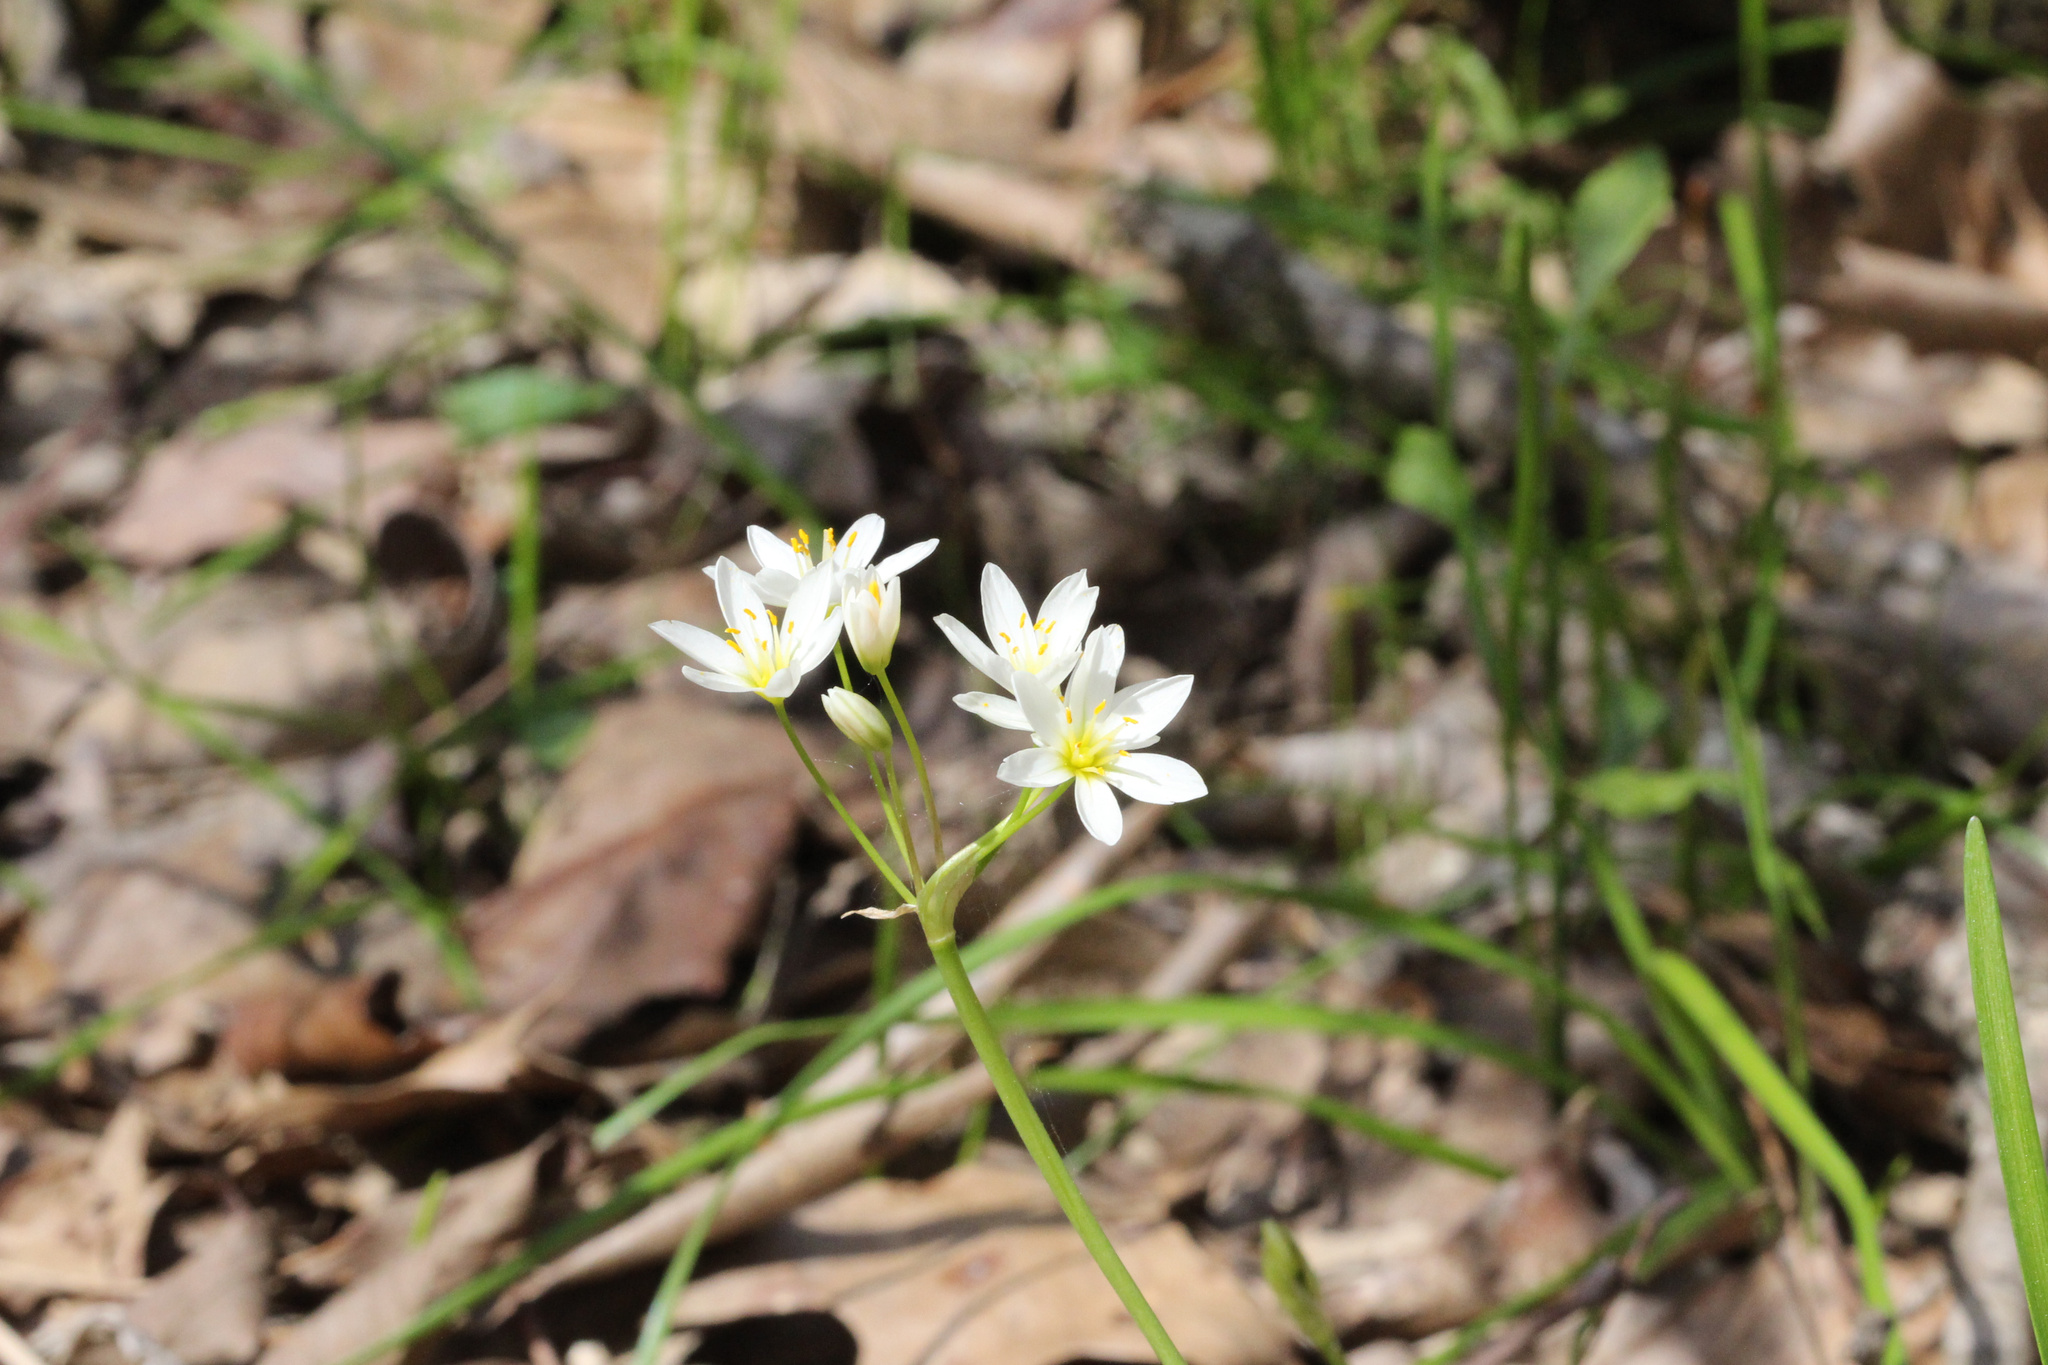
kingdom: Plantae
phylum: Tracheophyta
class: Liliopsida
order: Asparagales
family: Amaryllidaceae
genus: Nothoscordum
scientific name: Nothoscordum bivalve
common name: Crow-poison
